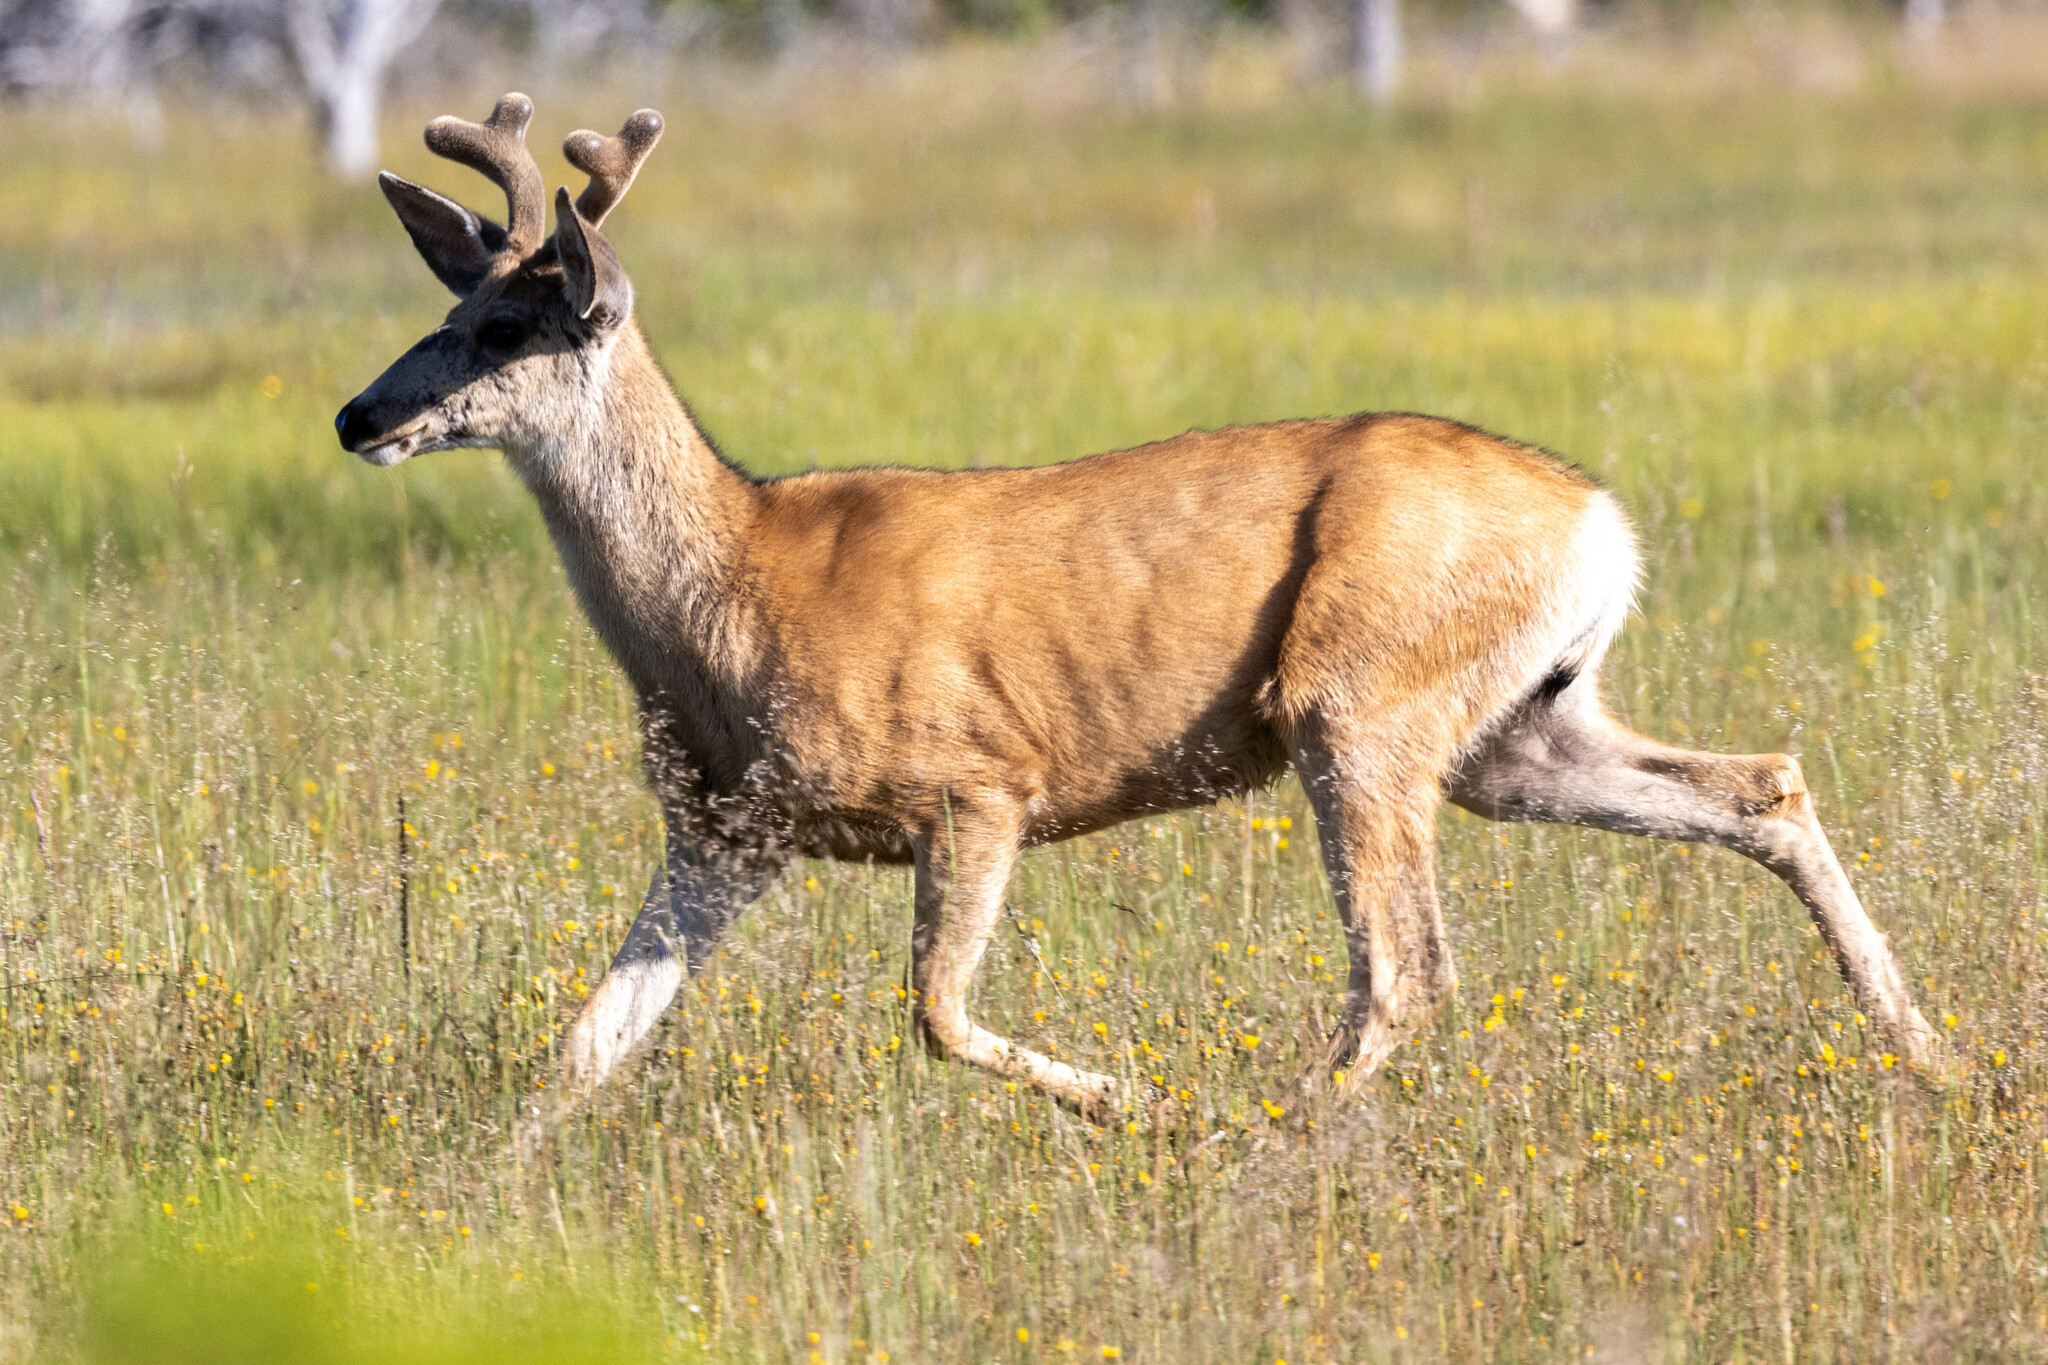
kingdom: Animalia
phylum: Chordata
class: Mammalia
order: Artiodactyla
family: Cervidae
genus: Odocoileus
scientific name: Odocoileus hemionus
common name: Mule deer
